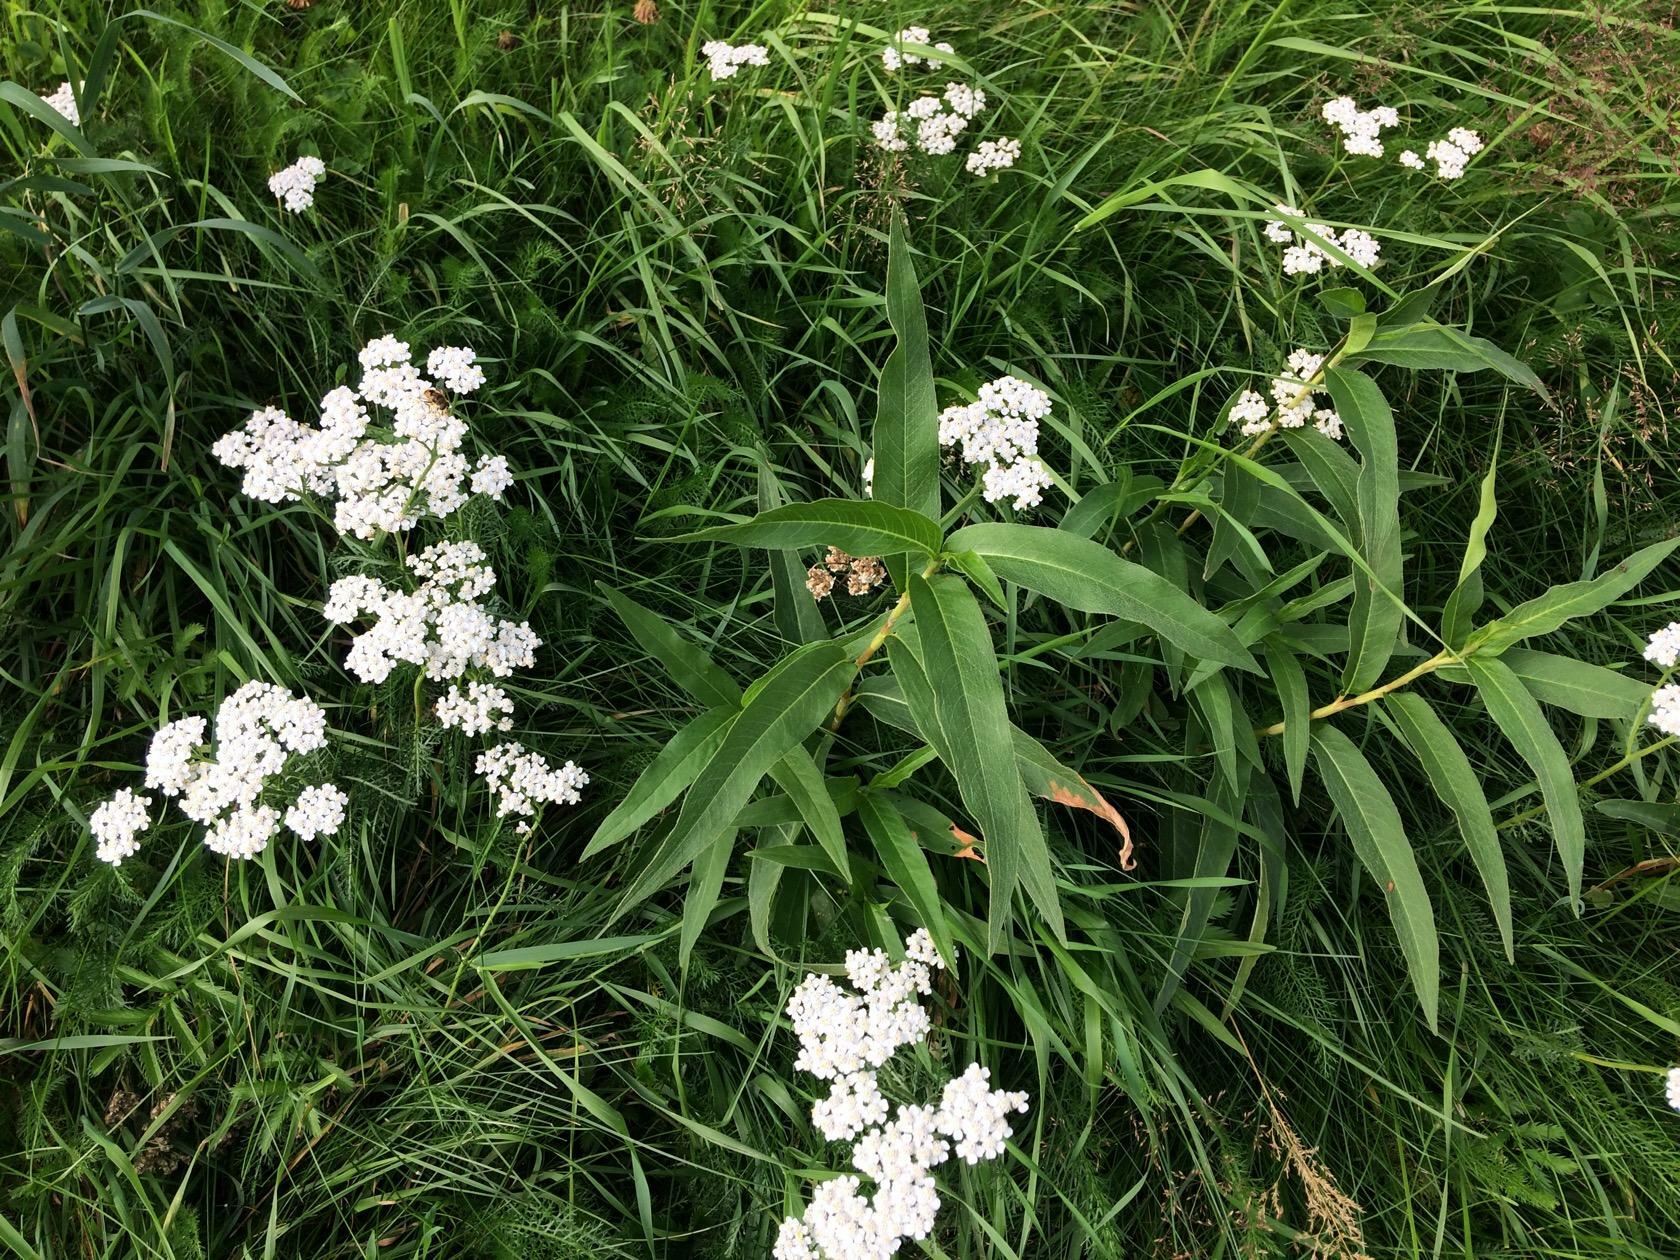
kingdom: Plantae
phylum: Tracheophyta
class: Magnoliopsida
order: Asterales
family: Asteraceae
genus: Achillea
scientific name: Achillea millefolium
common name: Yarrow
